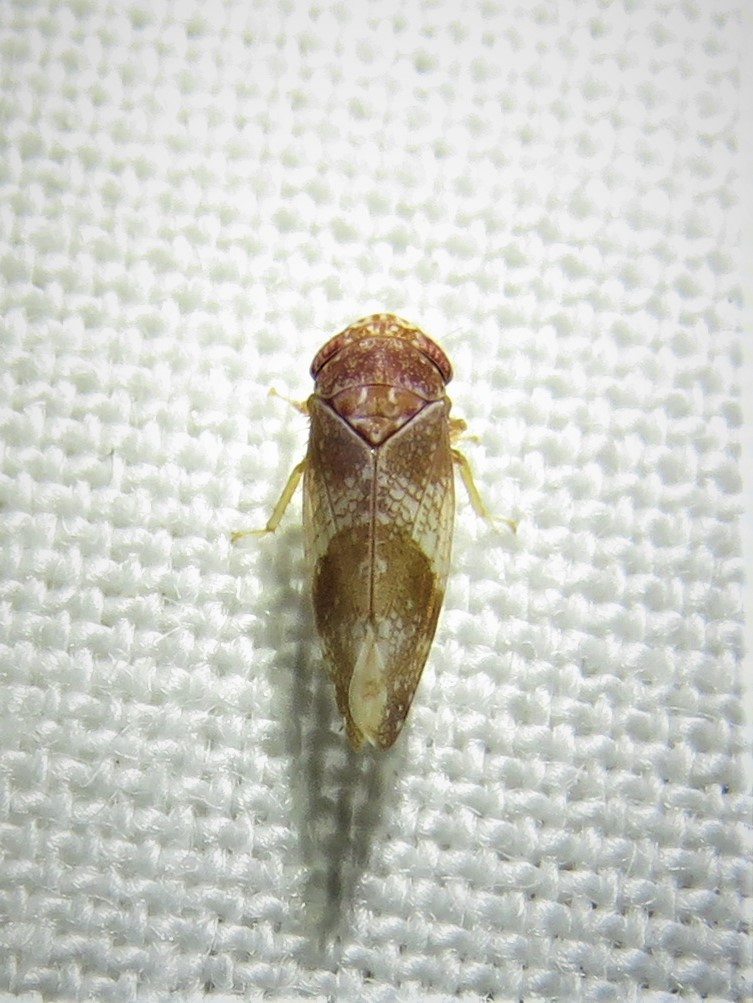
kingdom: Animalia
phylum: Arthropoda
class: Insecta
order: Hemiptera
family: Cicadellidae
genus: Norvellina
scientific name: Norvellina helenae
